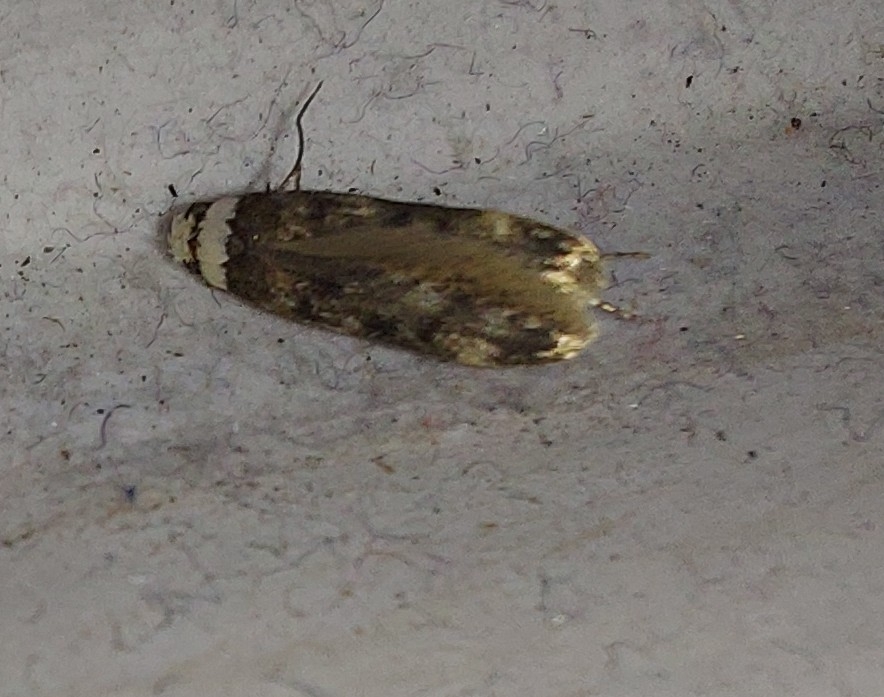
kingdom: Animalia
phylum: Arthropoda
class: Insecta
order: Lepidoptera
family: Oecophoridae
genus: Endrosis
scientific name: Endrosis sarcitrella
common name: White-shouldered house moth
